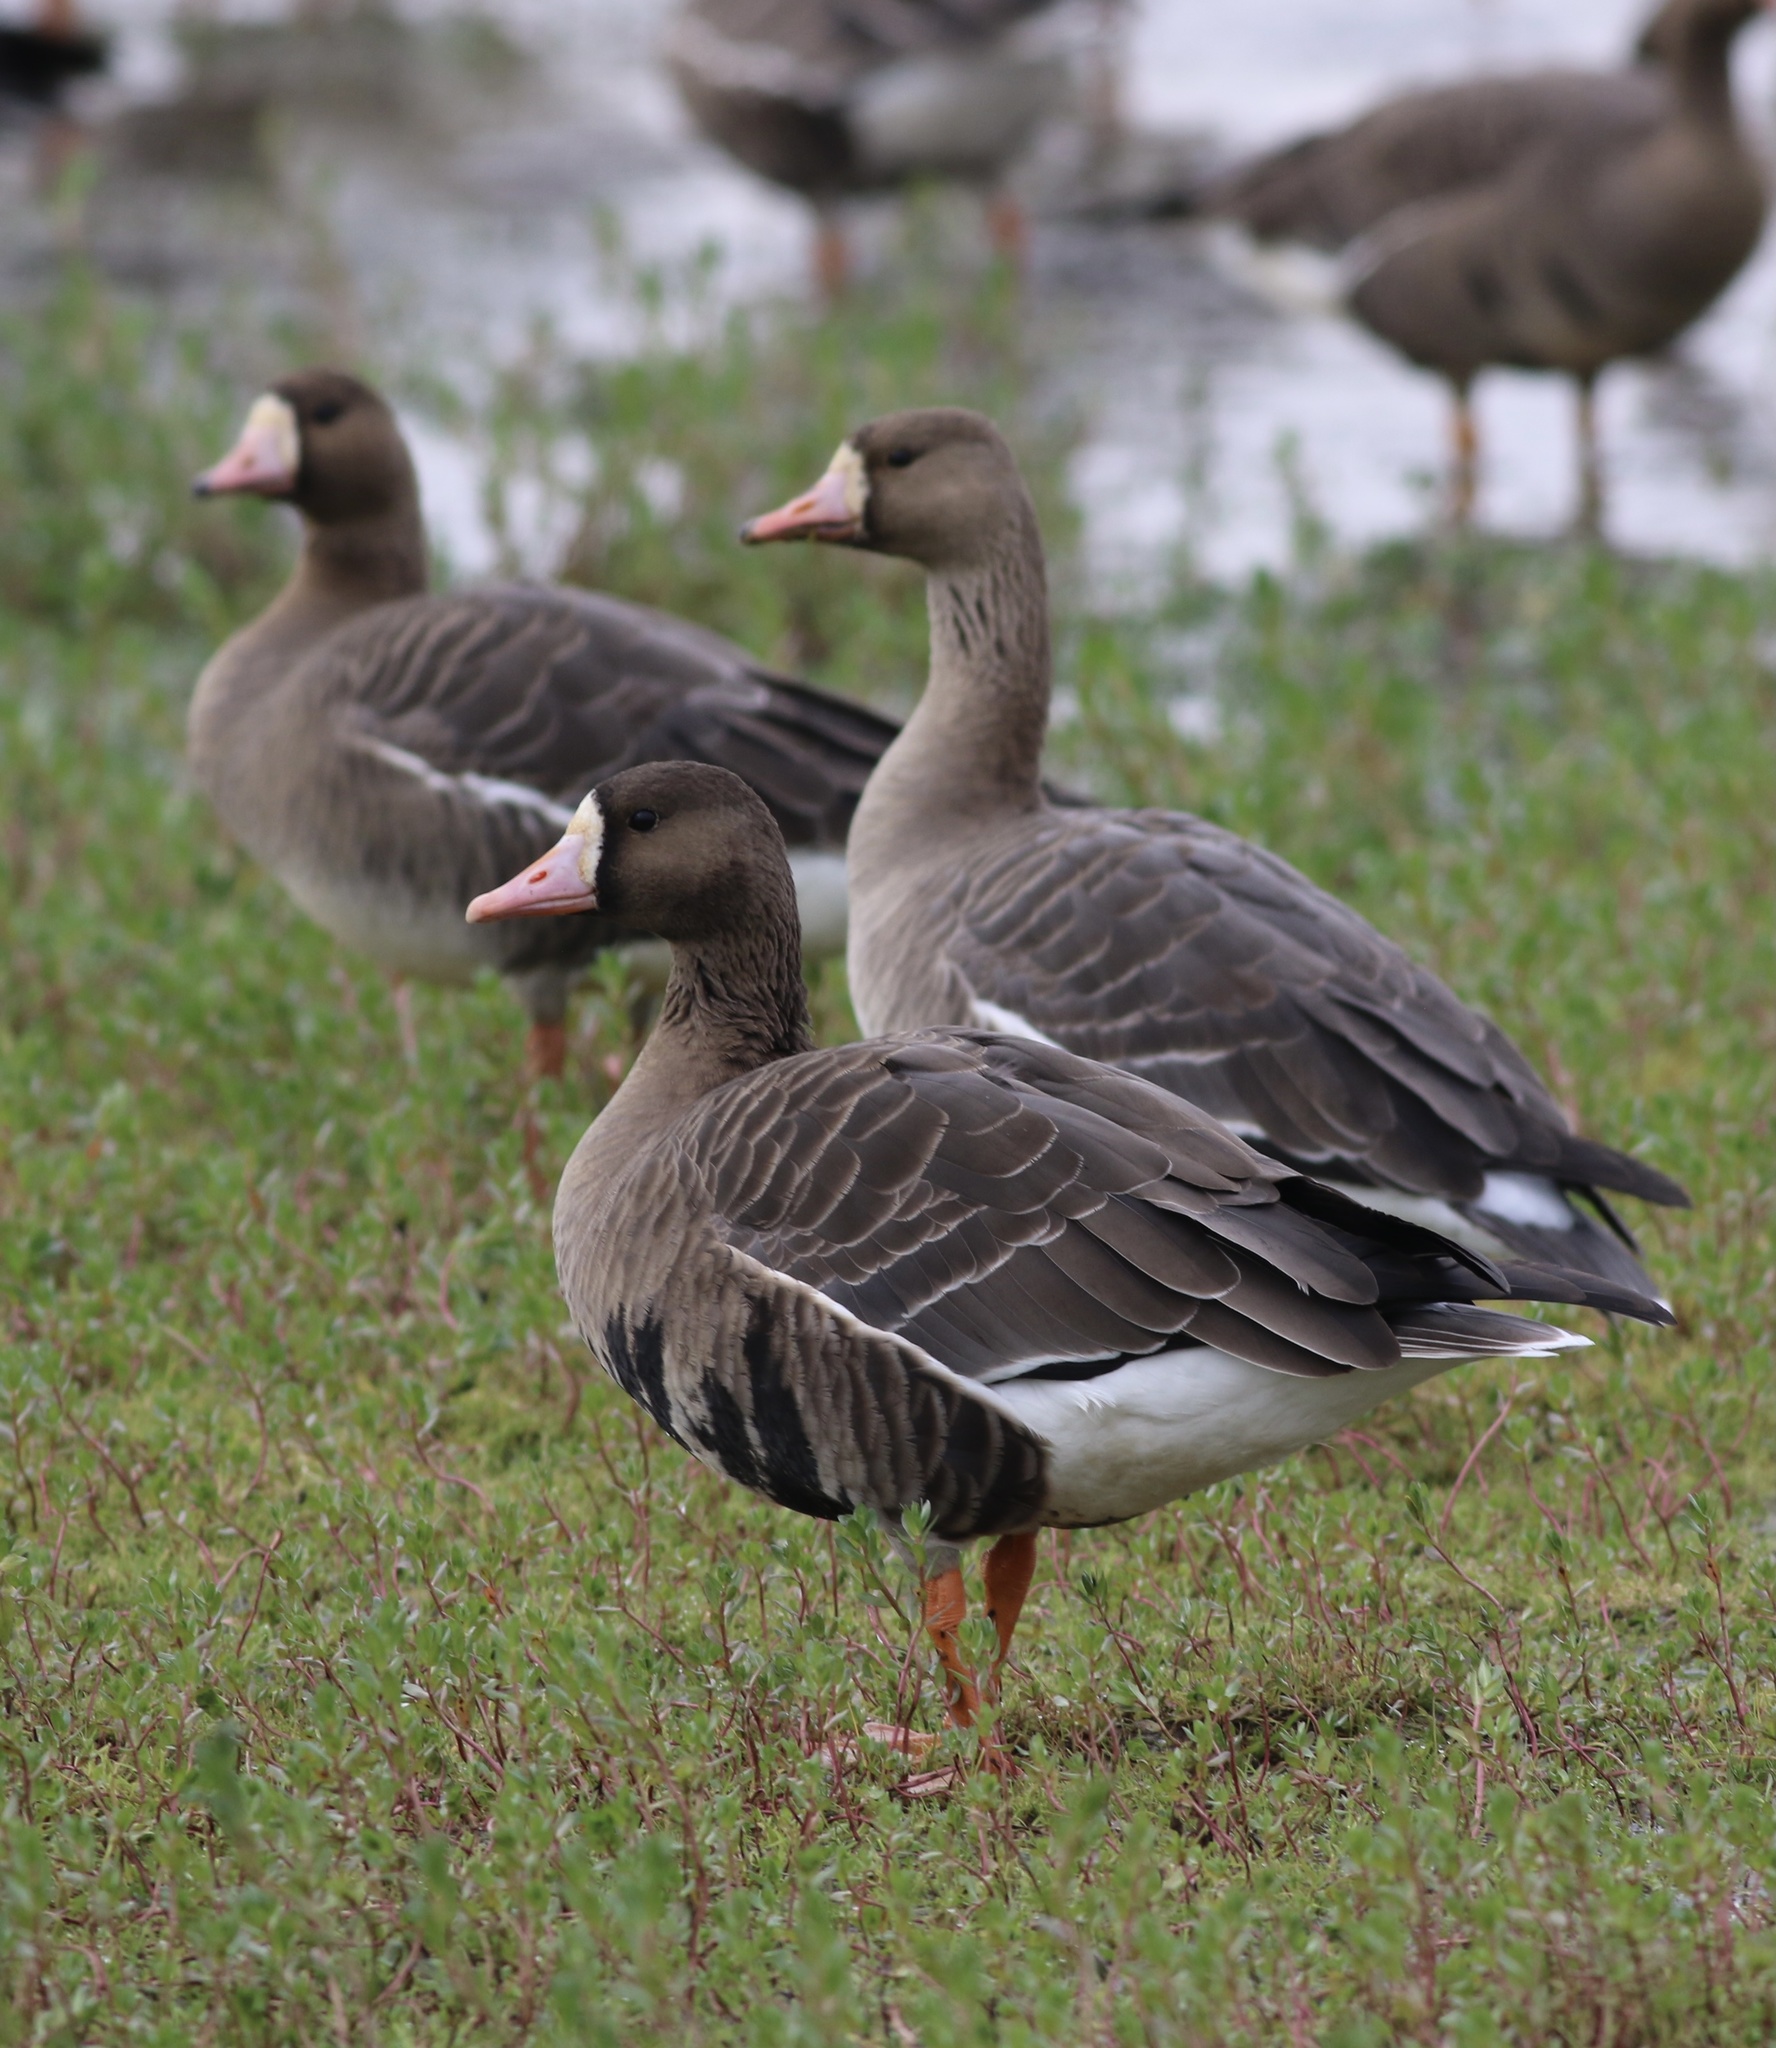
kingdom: Animalia
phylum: Chordata
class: Aves
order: Anseriformes
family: Anatidae
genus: Anser
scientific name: Anser albifrons
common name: Greater white-fronted goose
